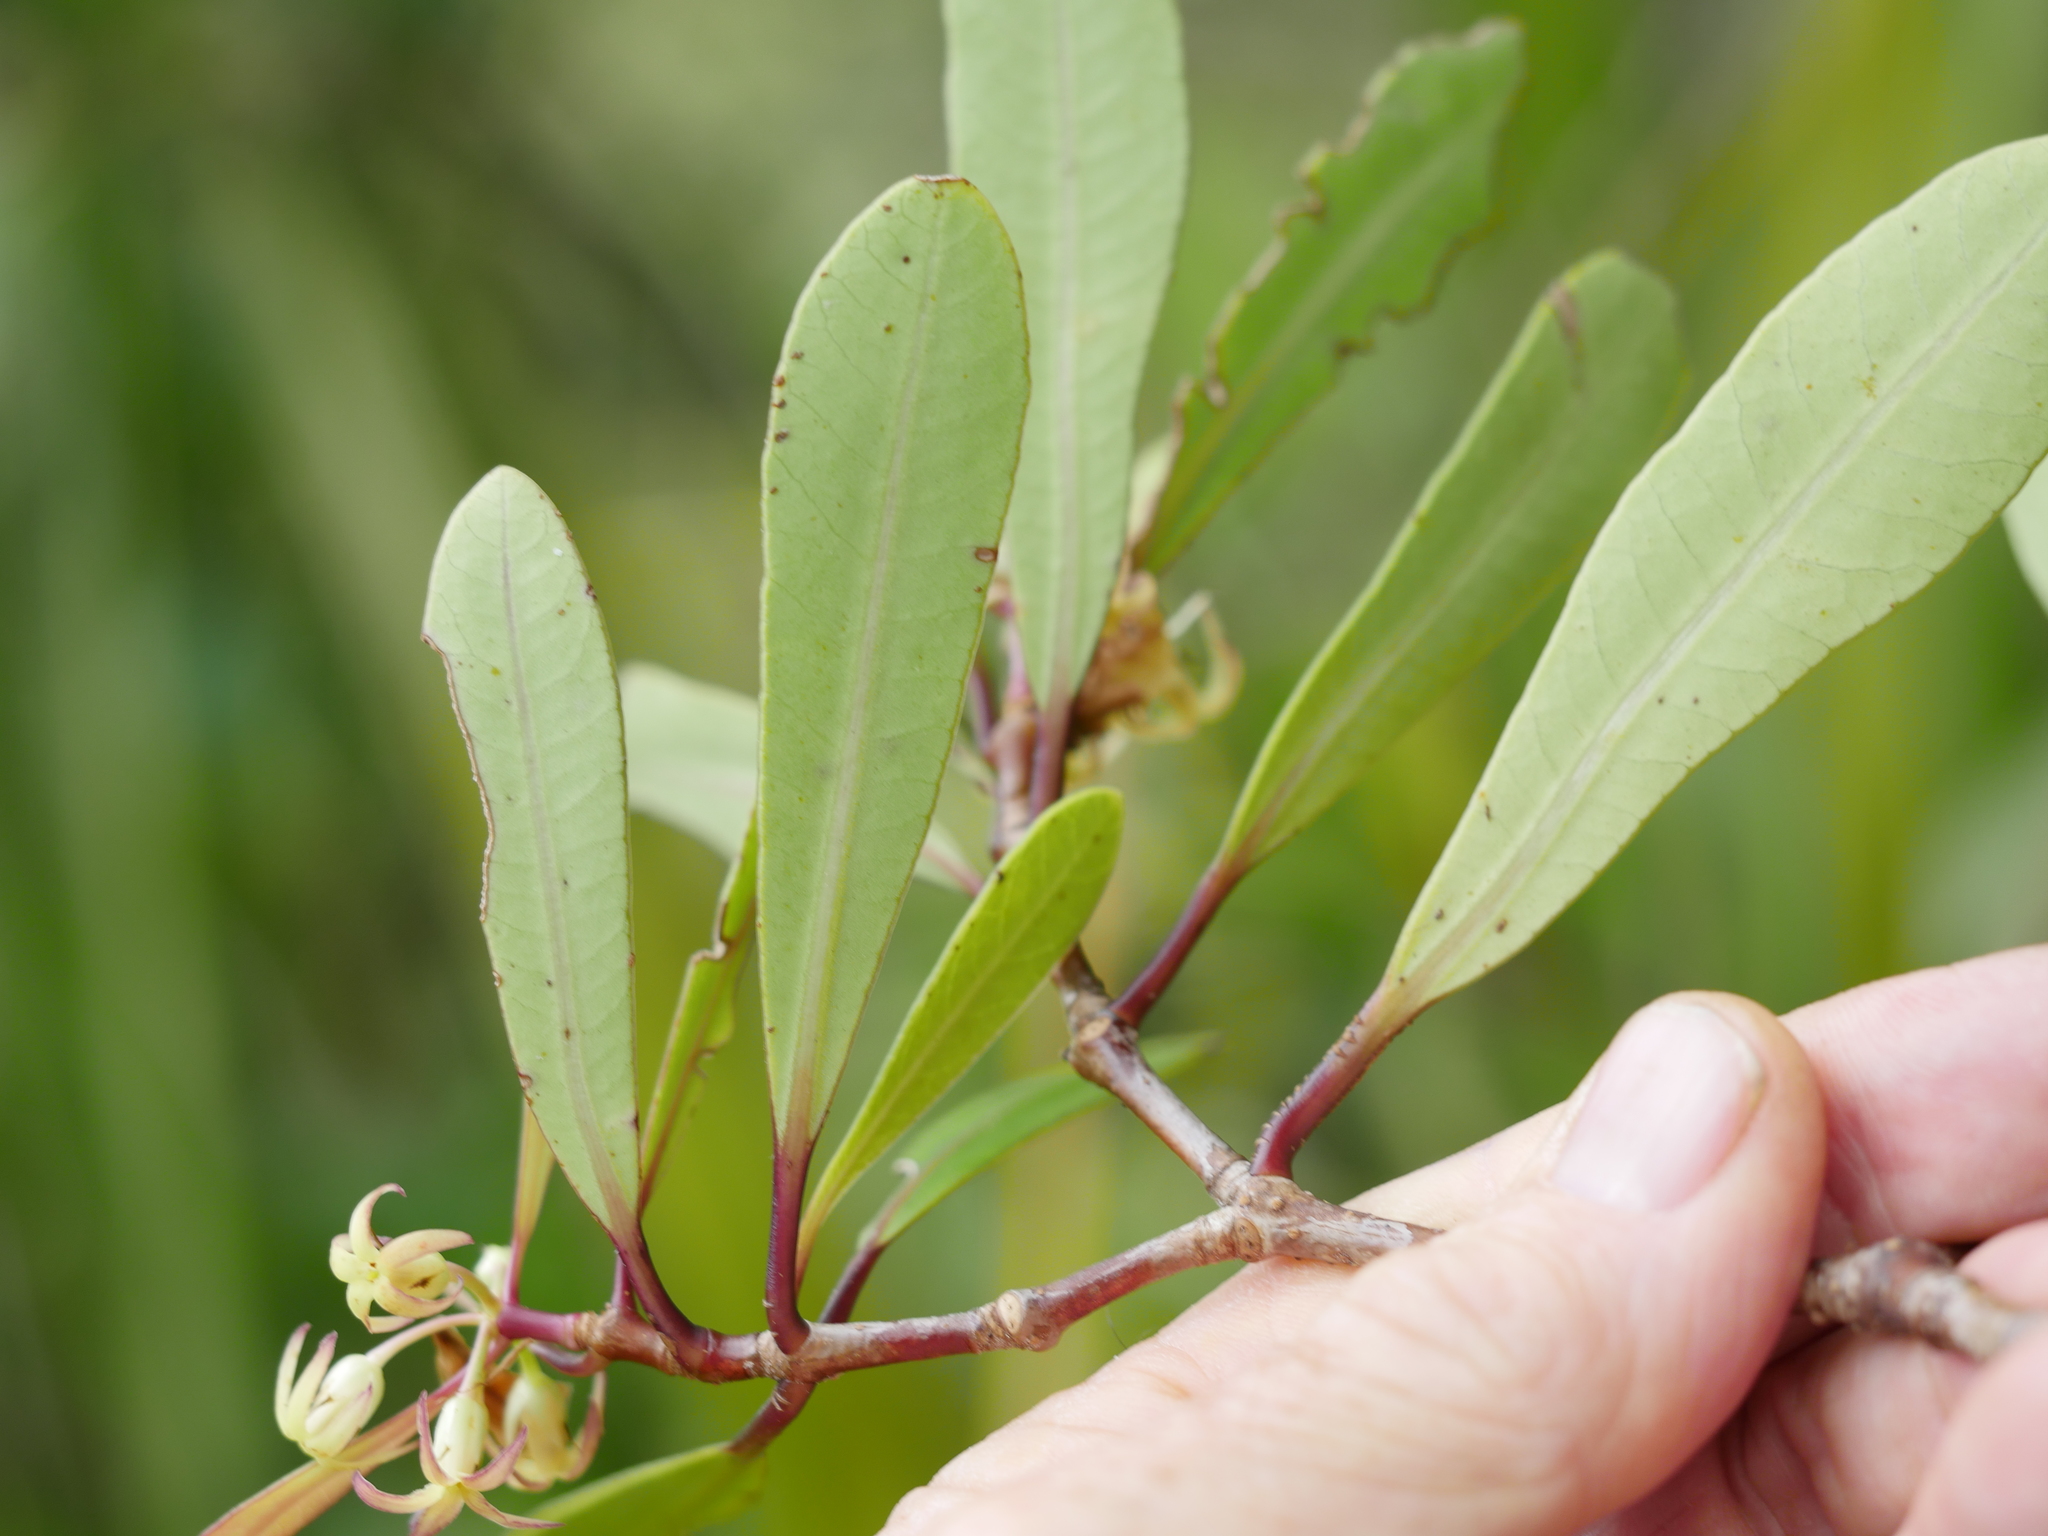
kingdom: Plantae
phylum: Tracheophyta
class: Magnoliopsida
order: Apiales
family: Pittosporaceae
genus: Pittosporum
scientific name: Pittosporum kirkii
